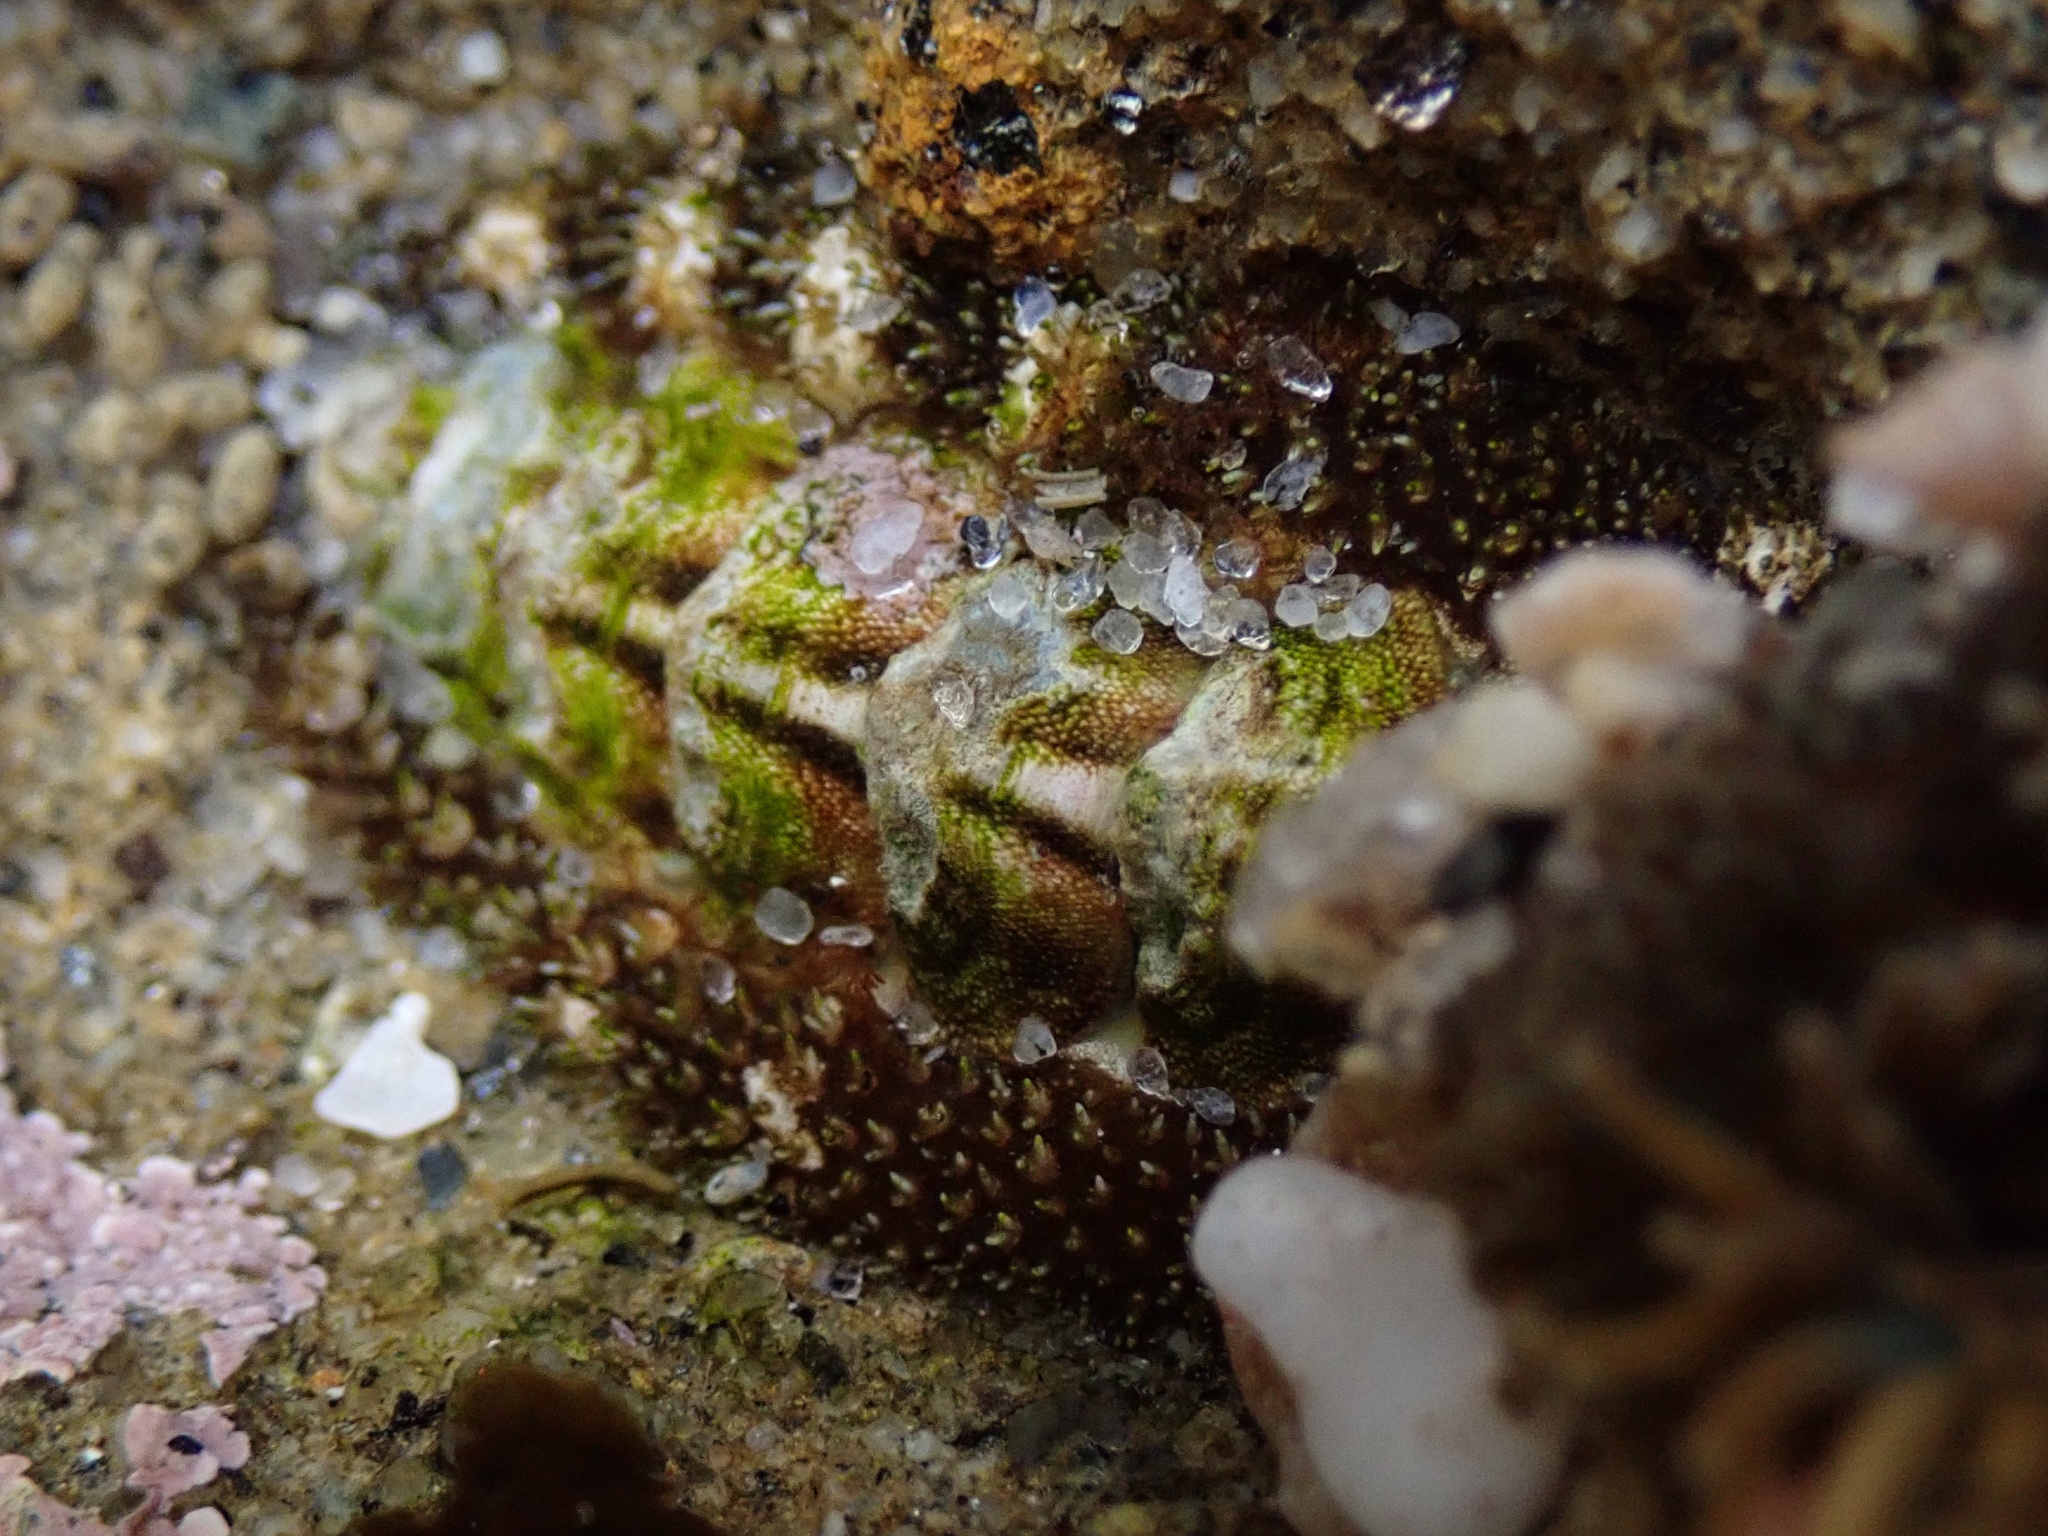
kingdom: Animalia
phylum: Mollusca
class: Polyplacophora
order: Chitonida
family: Tonicellidae
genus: Nuttallina
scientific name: Nuttallina californica
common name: California nuttall chiton
